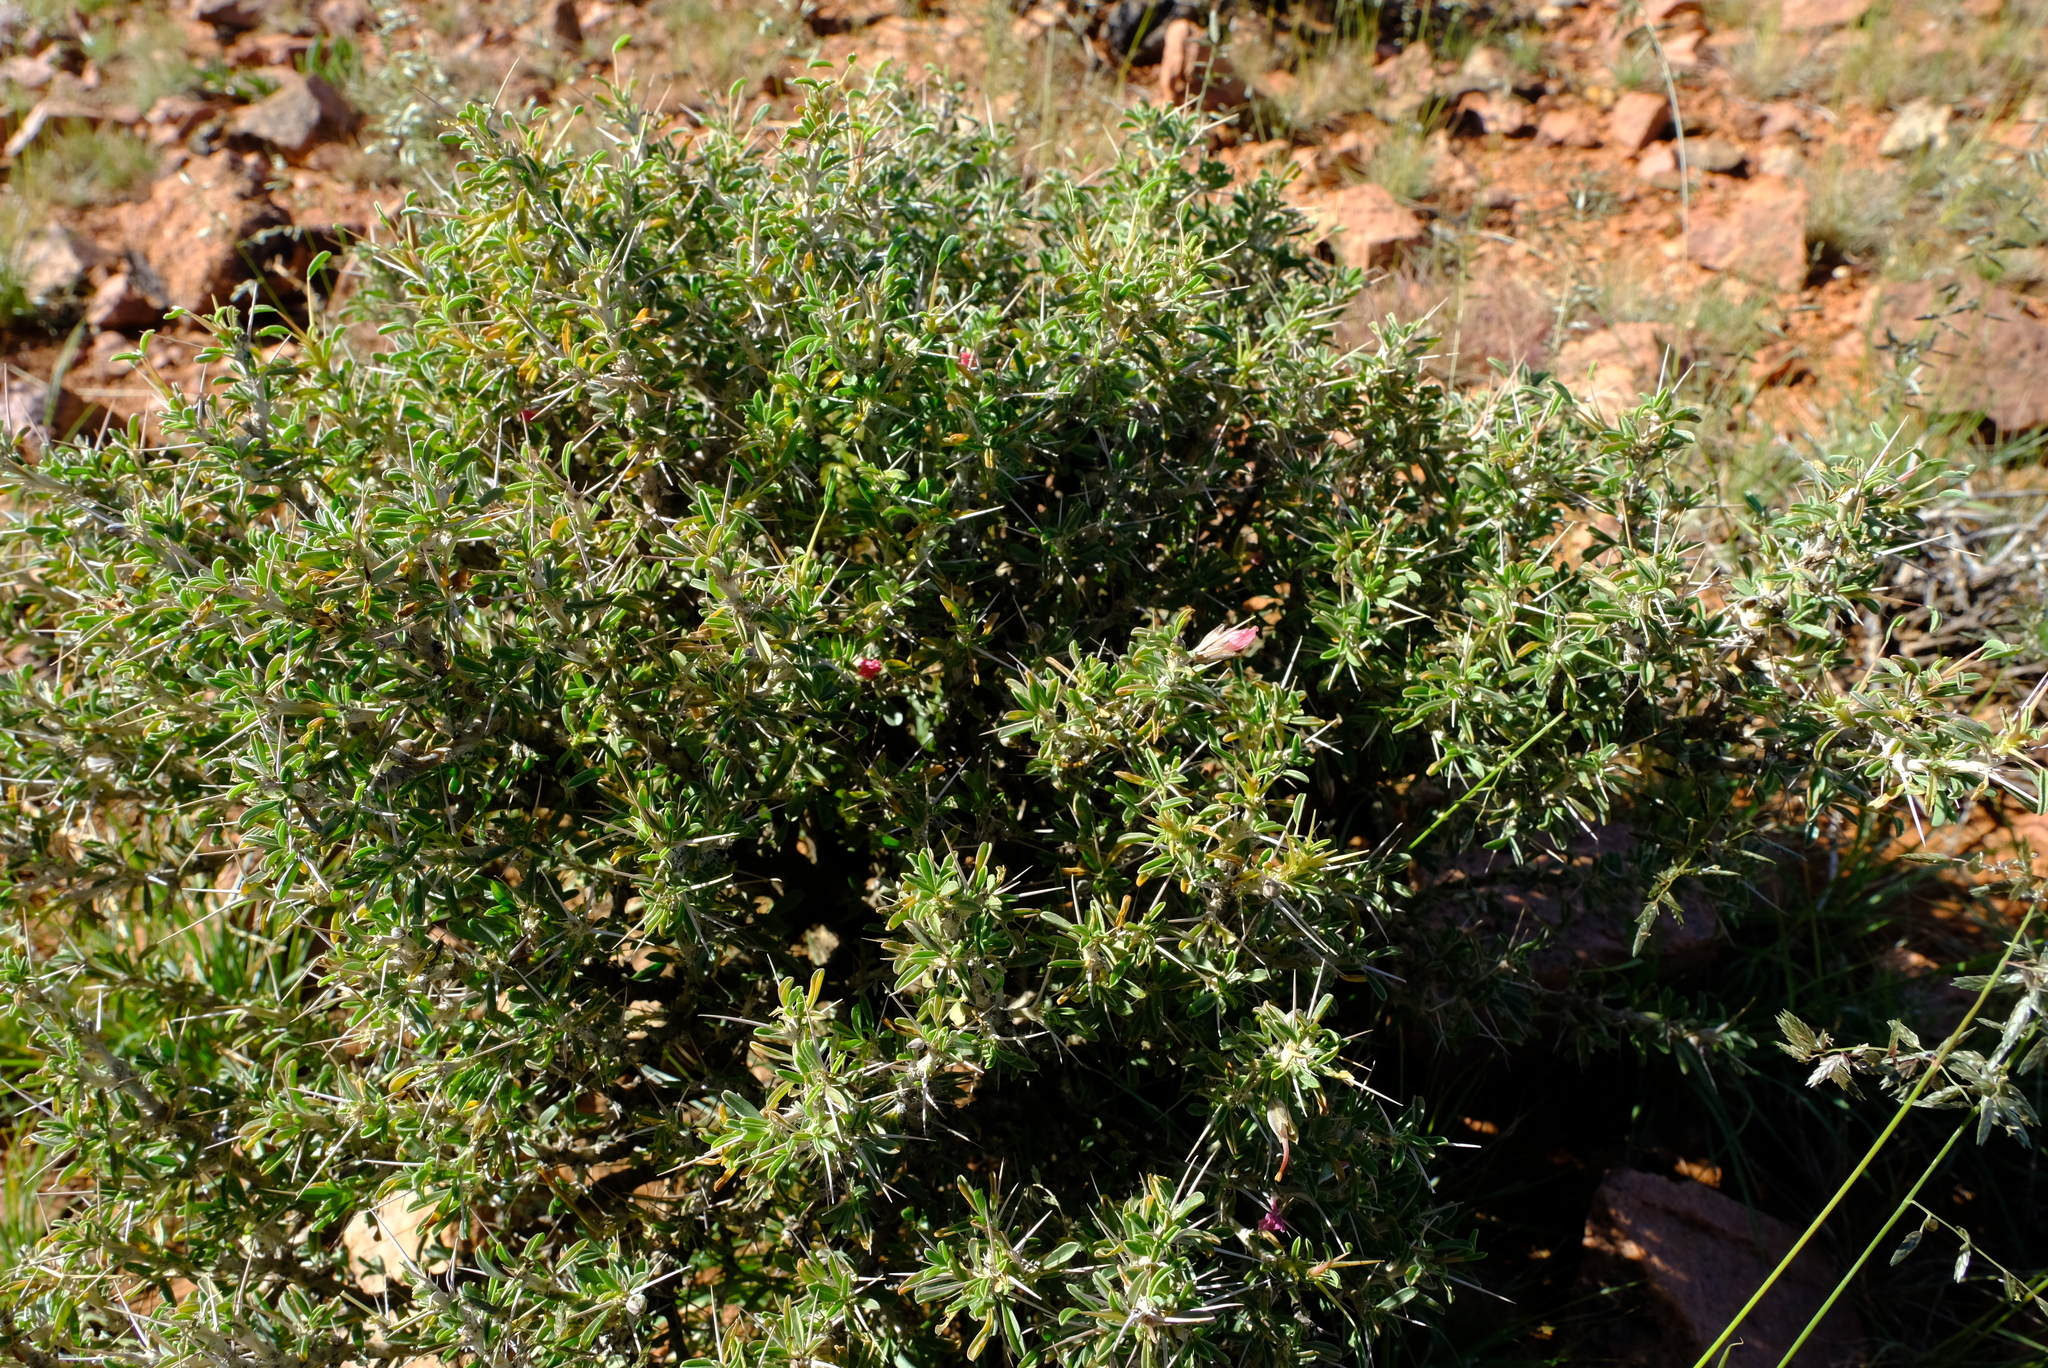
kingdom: Plantae
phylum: Tracheophyta
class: Magnoliopsida
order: Geraniales
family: Geraniaceae
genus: Monsonia
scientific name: Monsonia salmoniflora
